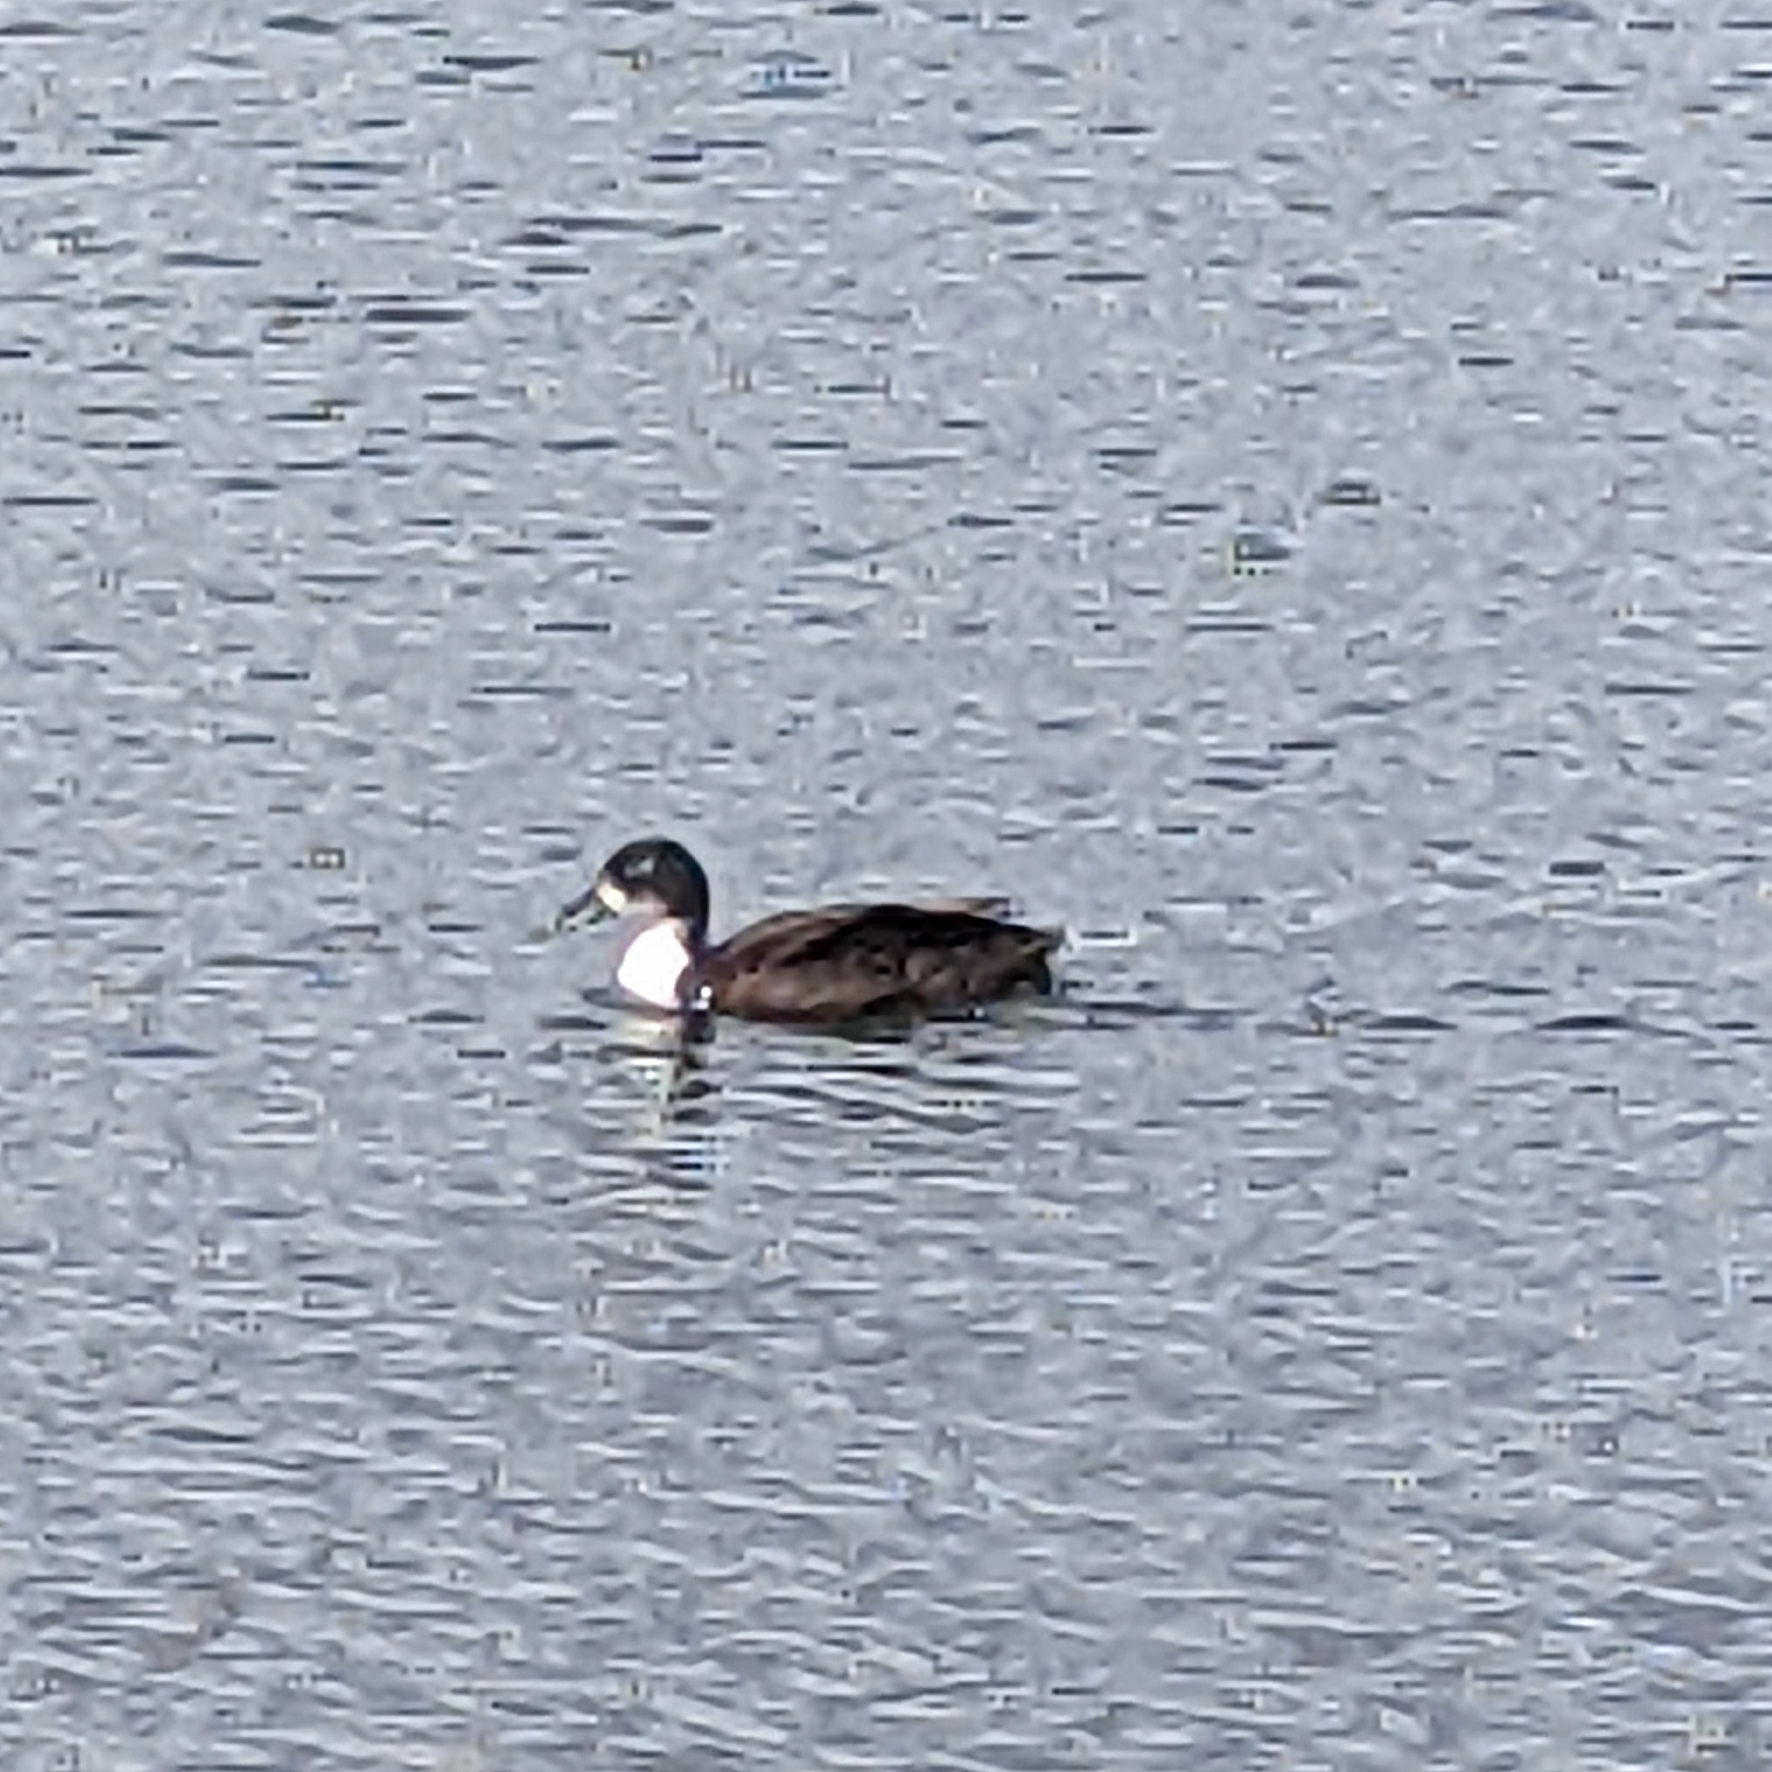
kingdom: Animalia
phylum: Chordata
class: Aves
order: Anseriformes
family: Anatidae
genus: Anas
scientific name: Anas platyrhynchos
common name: Mallard
